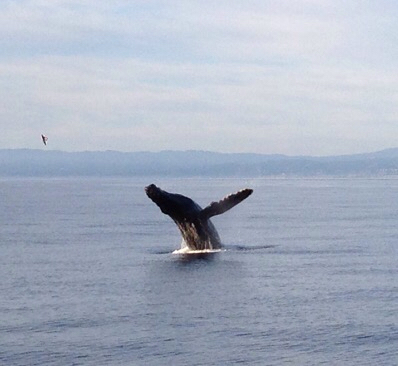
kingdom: Animalia
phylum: Chordata
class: Mammalia
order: Cetacea
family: Balaenopteridae
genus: Megaptera
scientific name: Megaptera novaeangliae
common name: Humpback whale
